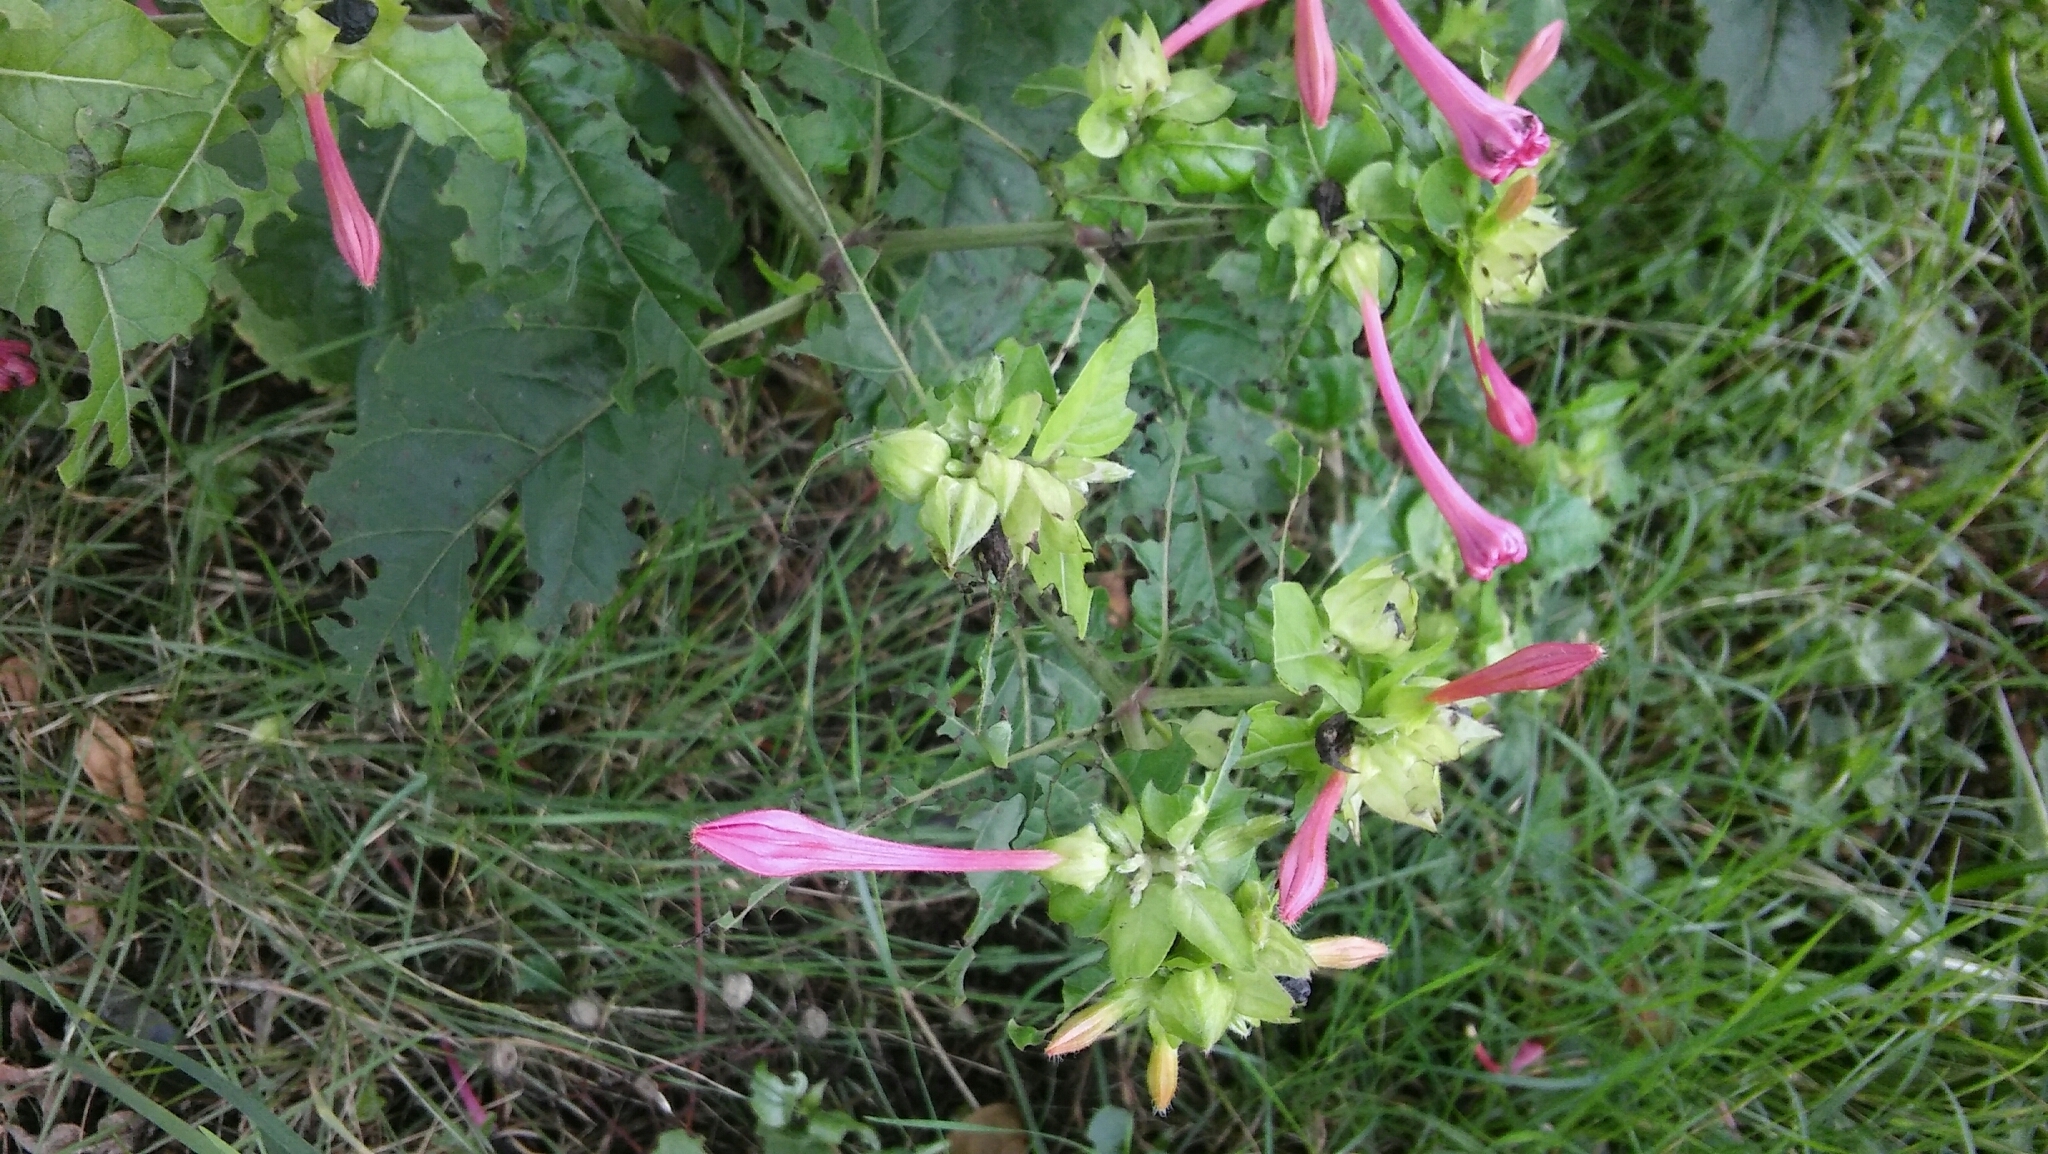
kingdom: Plantae
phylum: Tracheophyta
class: Magnoliopsida
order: Caryophyllales
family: Nyctaginaceae
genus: Mirabilis
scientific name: Mirabilis jalapa
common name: Marvel-of-peru
